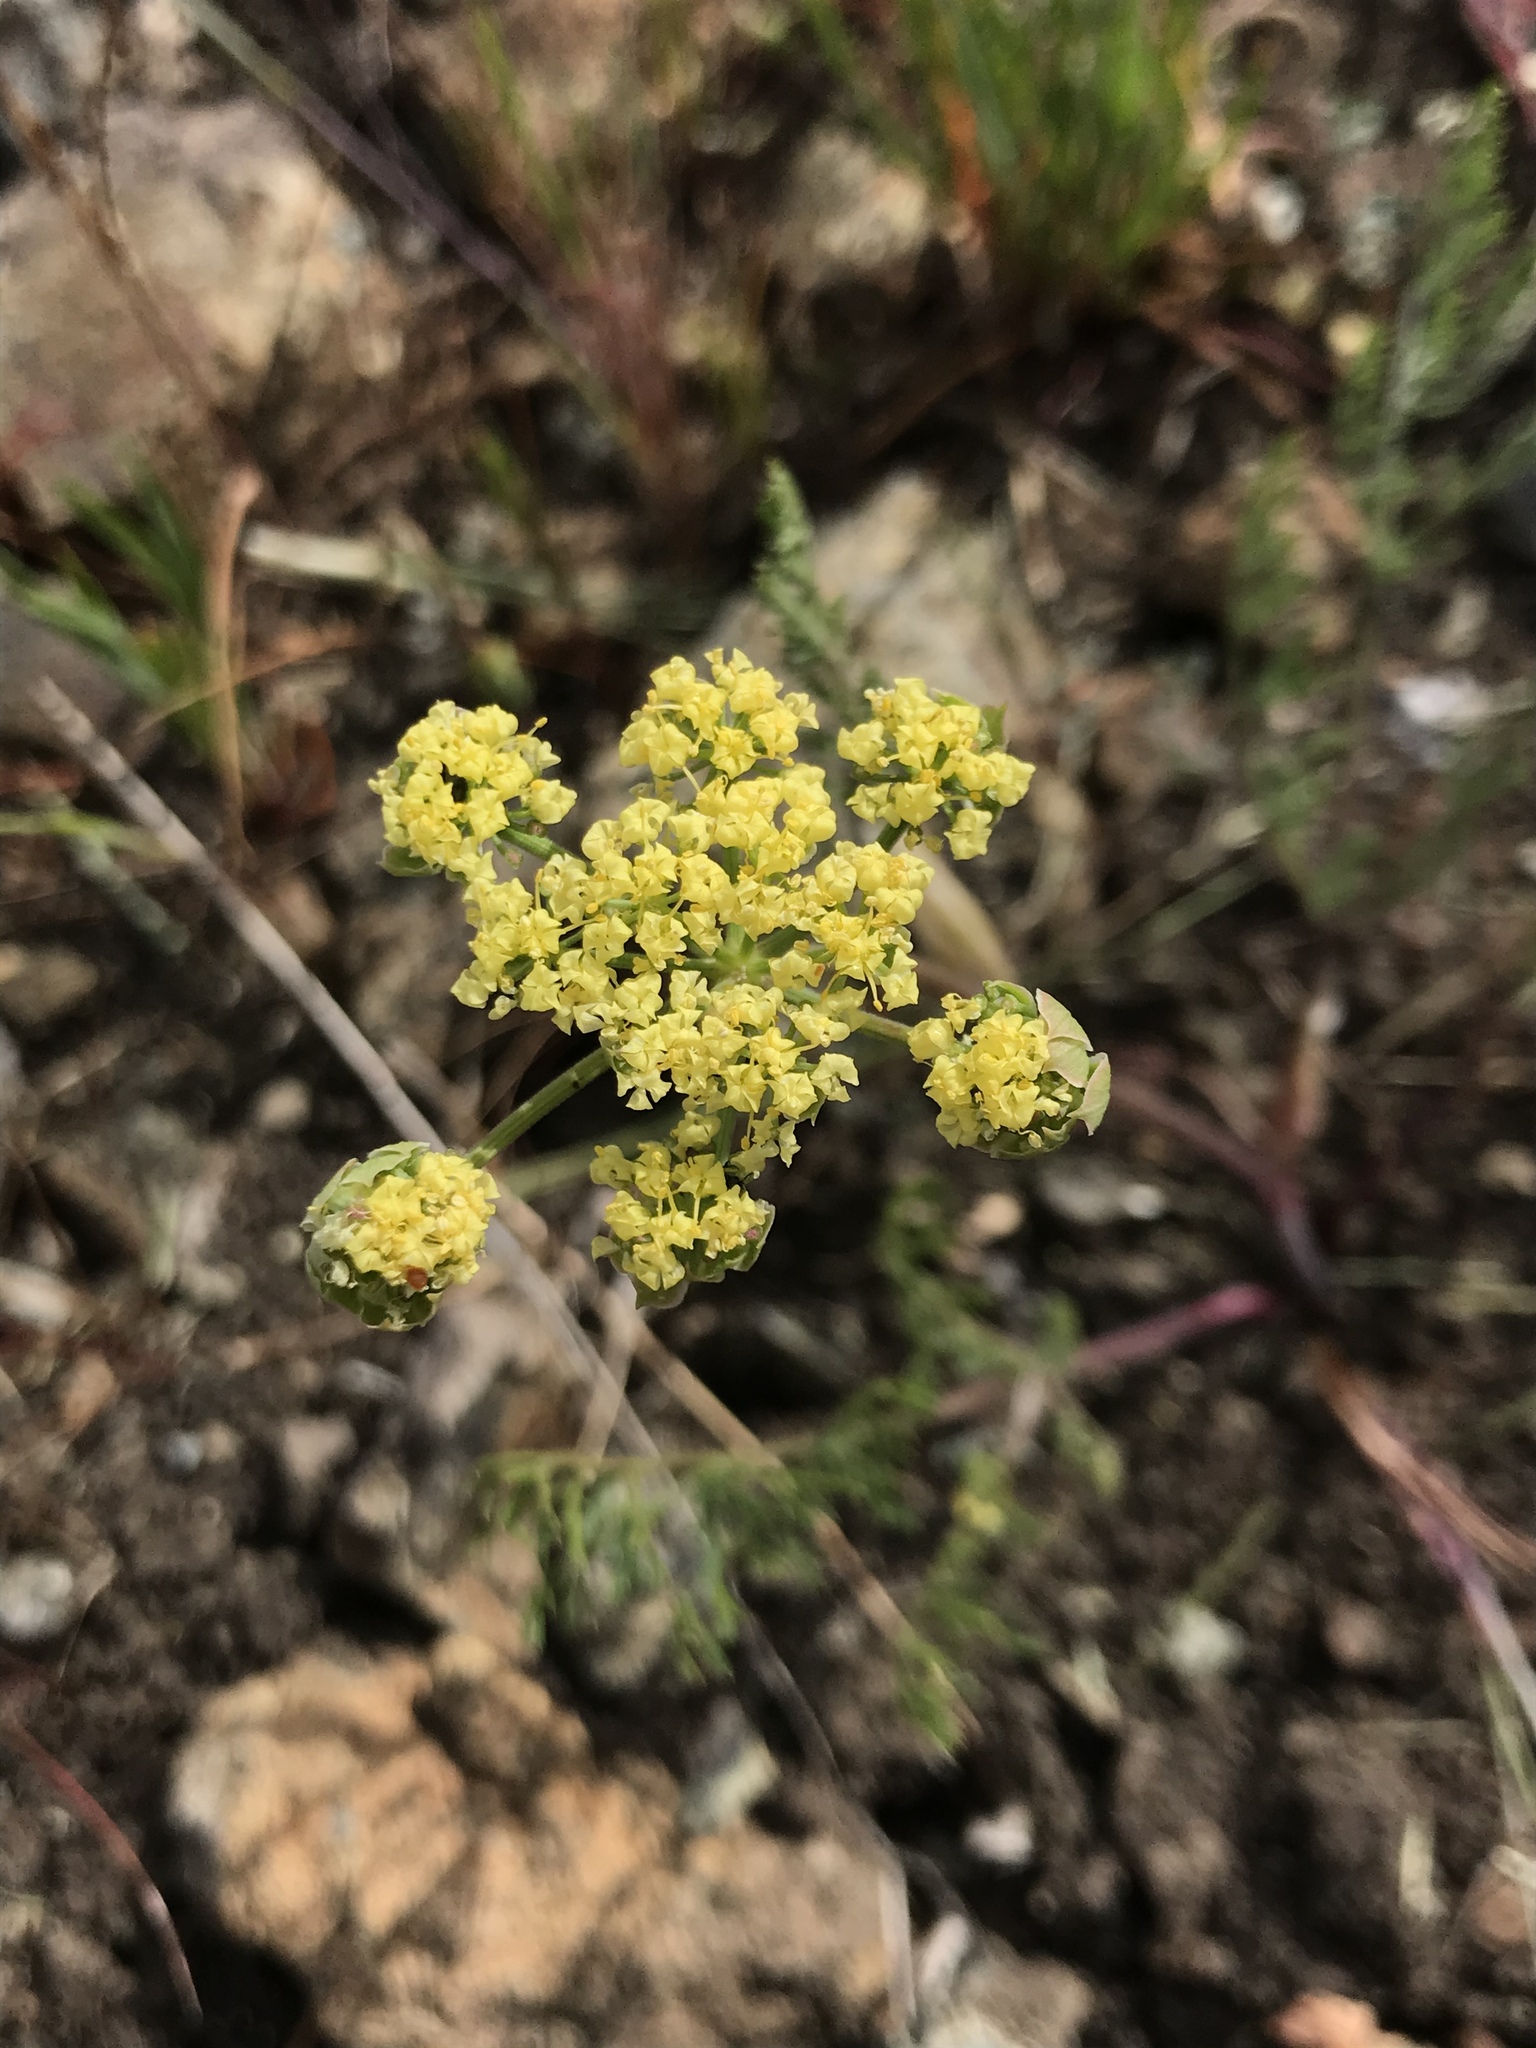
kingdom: Plantae
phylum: Tracheophyta
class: Magnoliopsida
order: Apiales
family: Apiaceae
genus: Lomatium
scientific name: Lomatium utriculatum
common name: Fine-leaf desert-parsley
